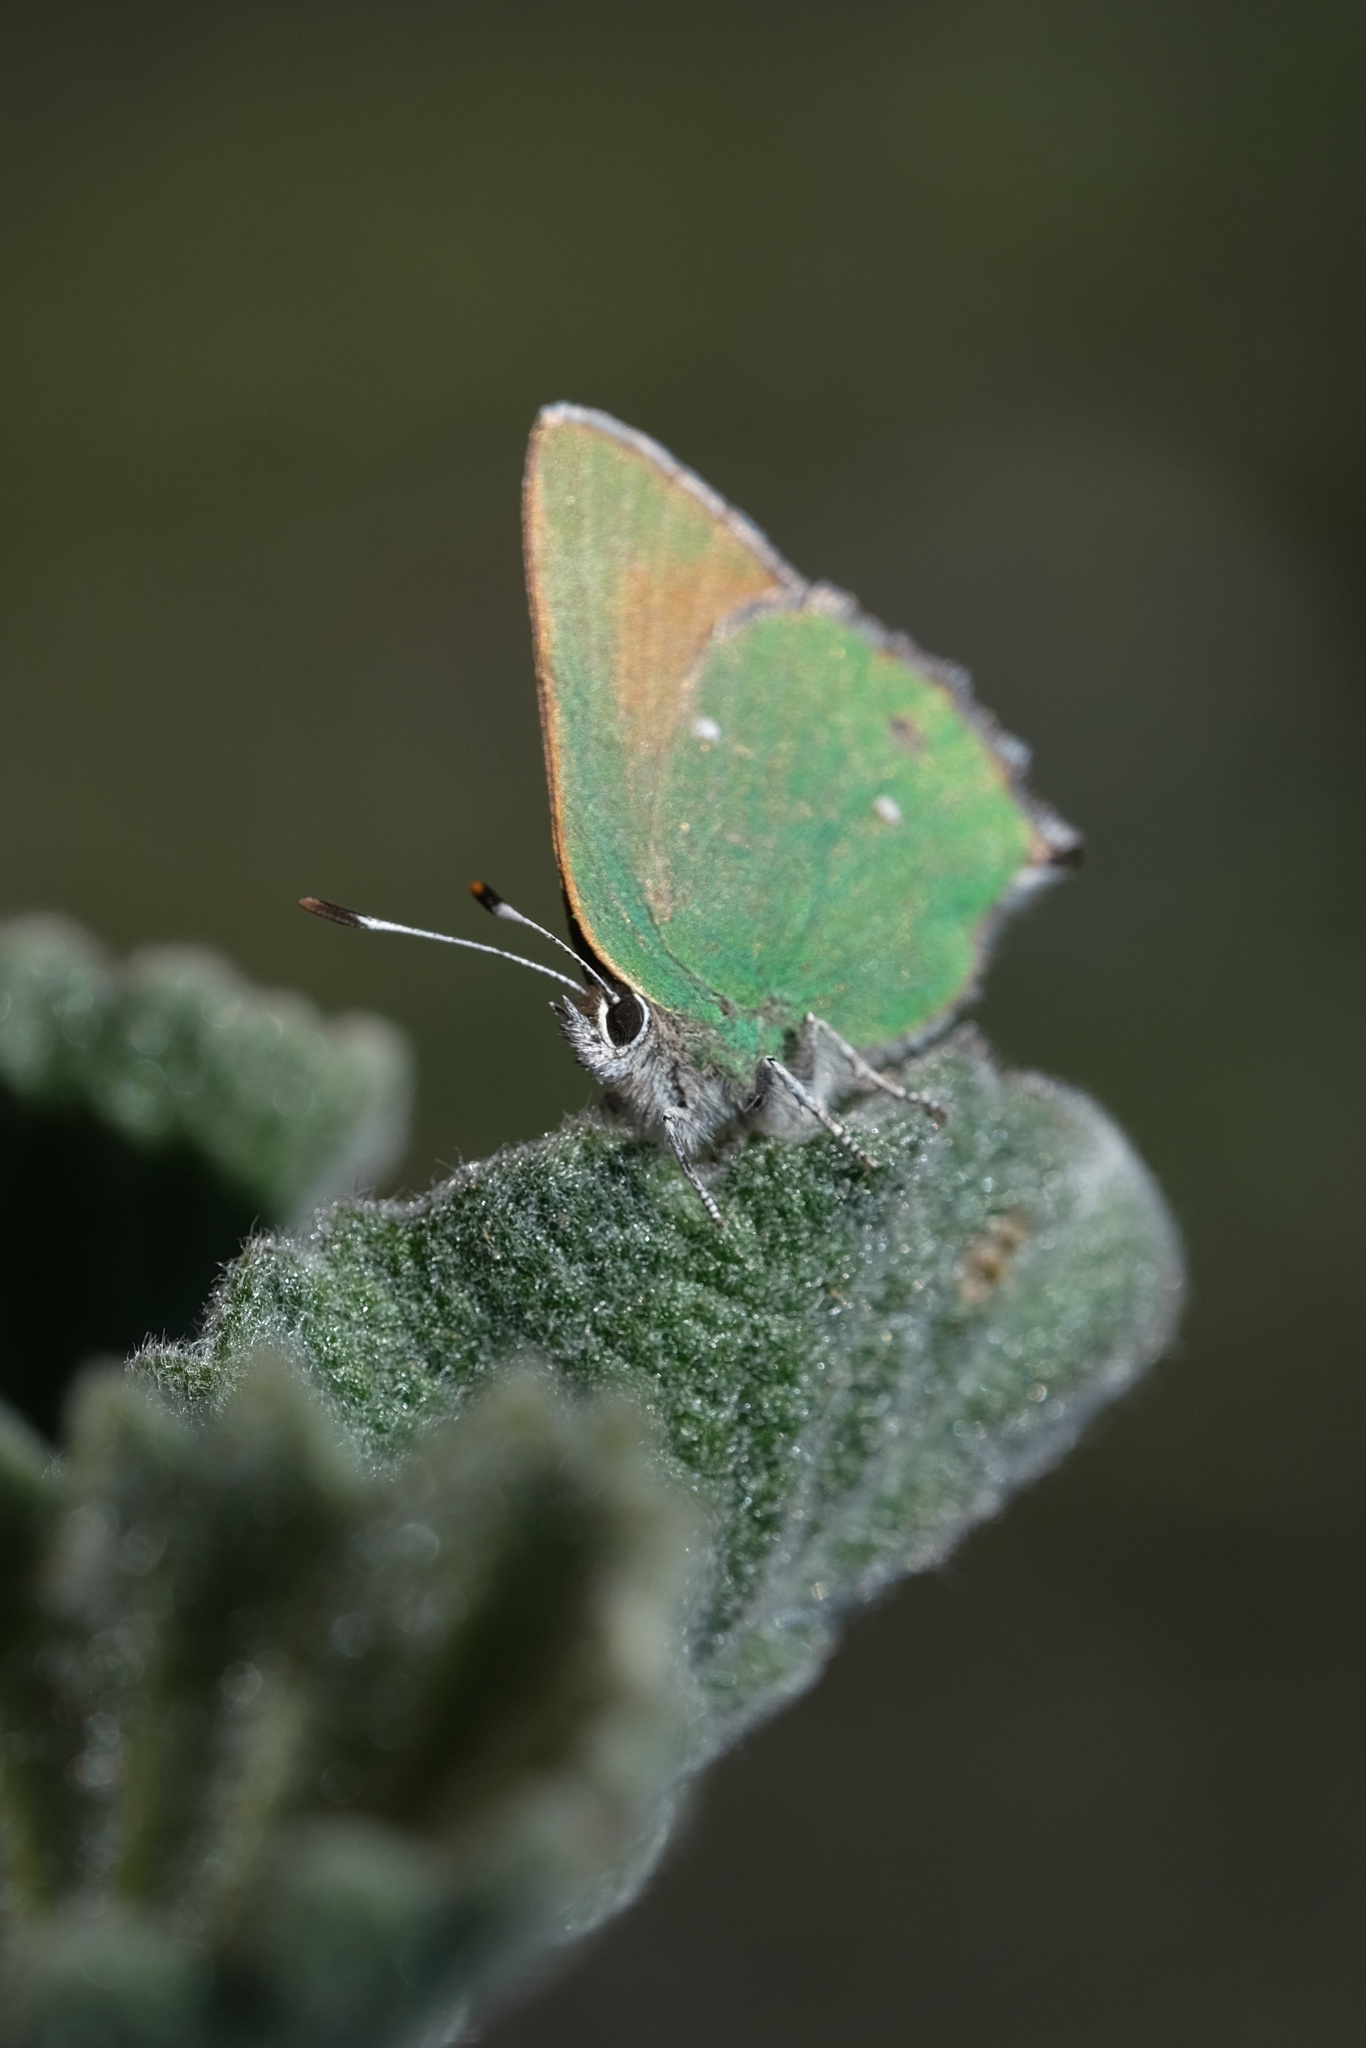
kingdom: Animalia
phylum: Arthropoda
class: Insecta
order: Lepidoptera
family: Lycaenidae
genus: Callophrys
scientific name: Callophrys dumetorum
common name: Bramble hairstreak
